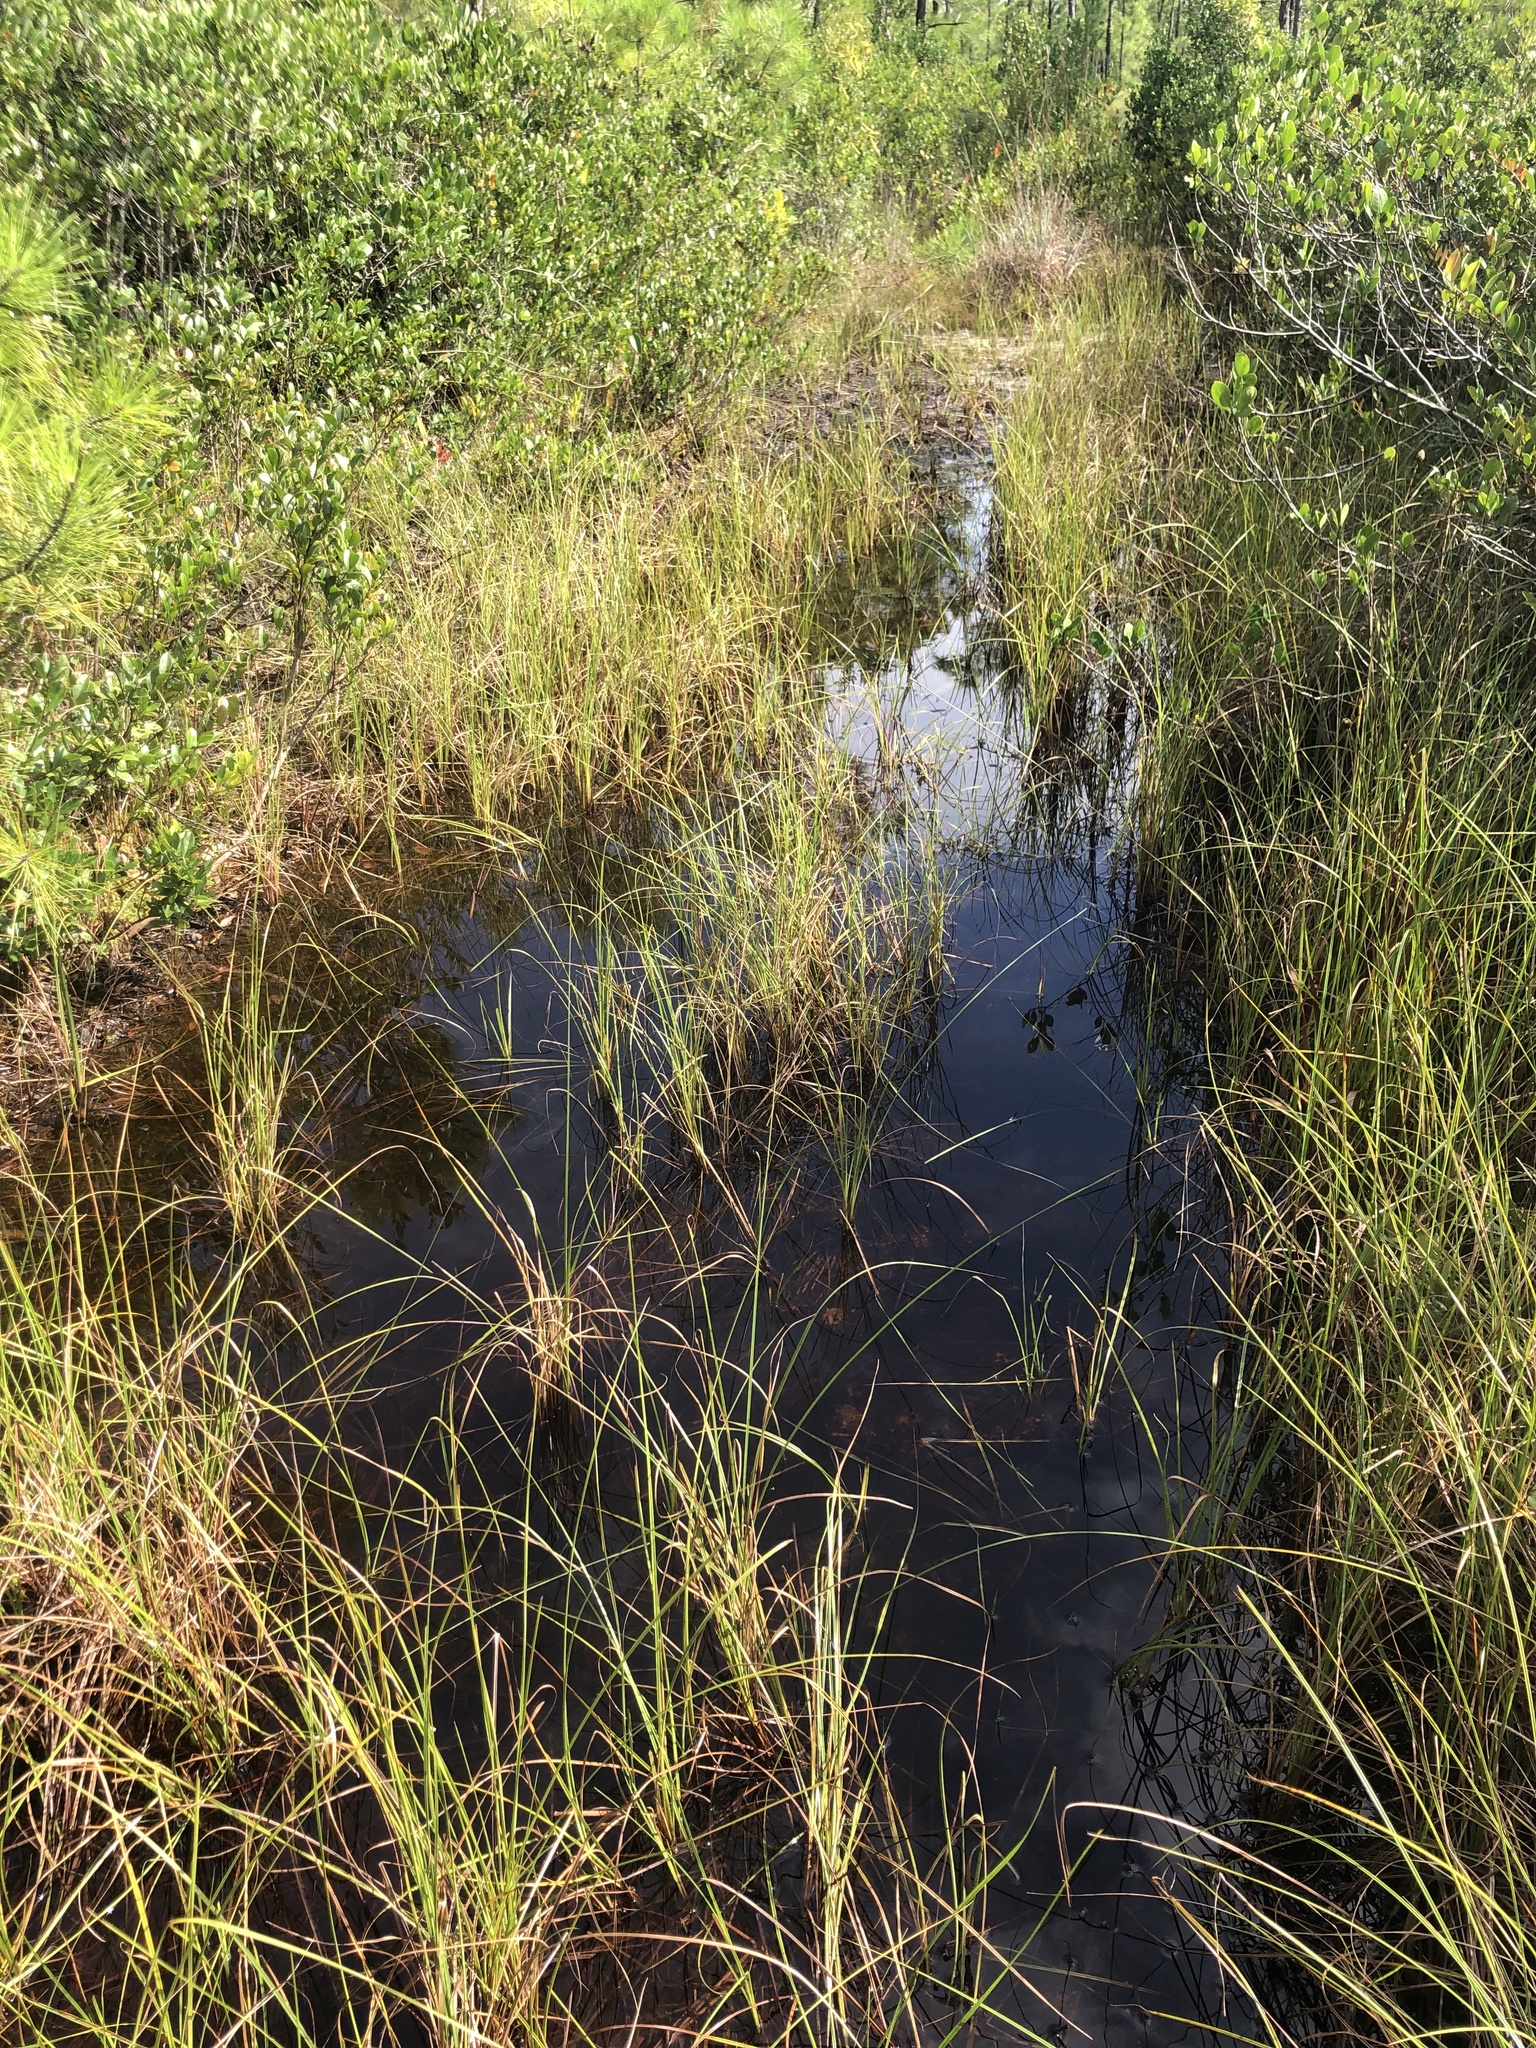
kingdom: Plantae
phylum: Tracheophyta
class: Liliopsida
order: Poales
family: Cyperaceae
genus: Carex
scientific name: Carex striata
